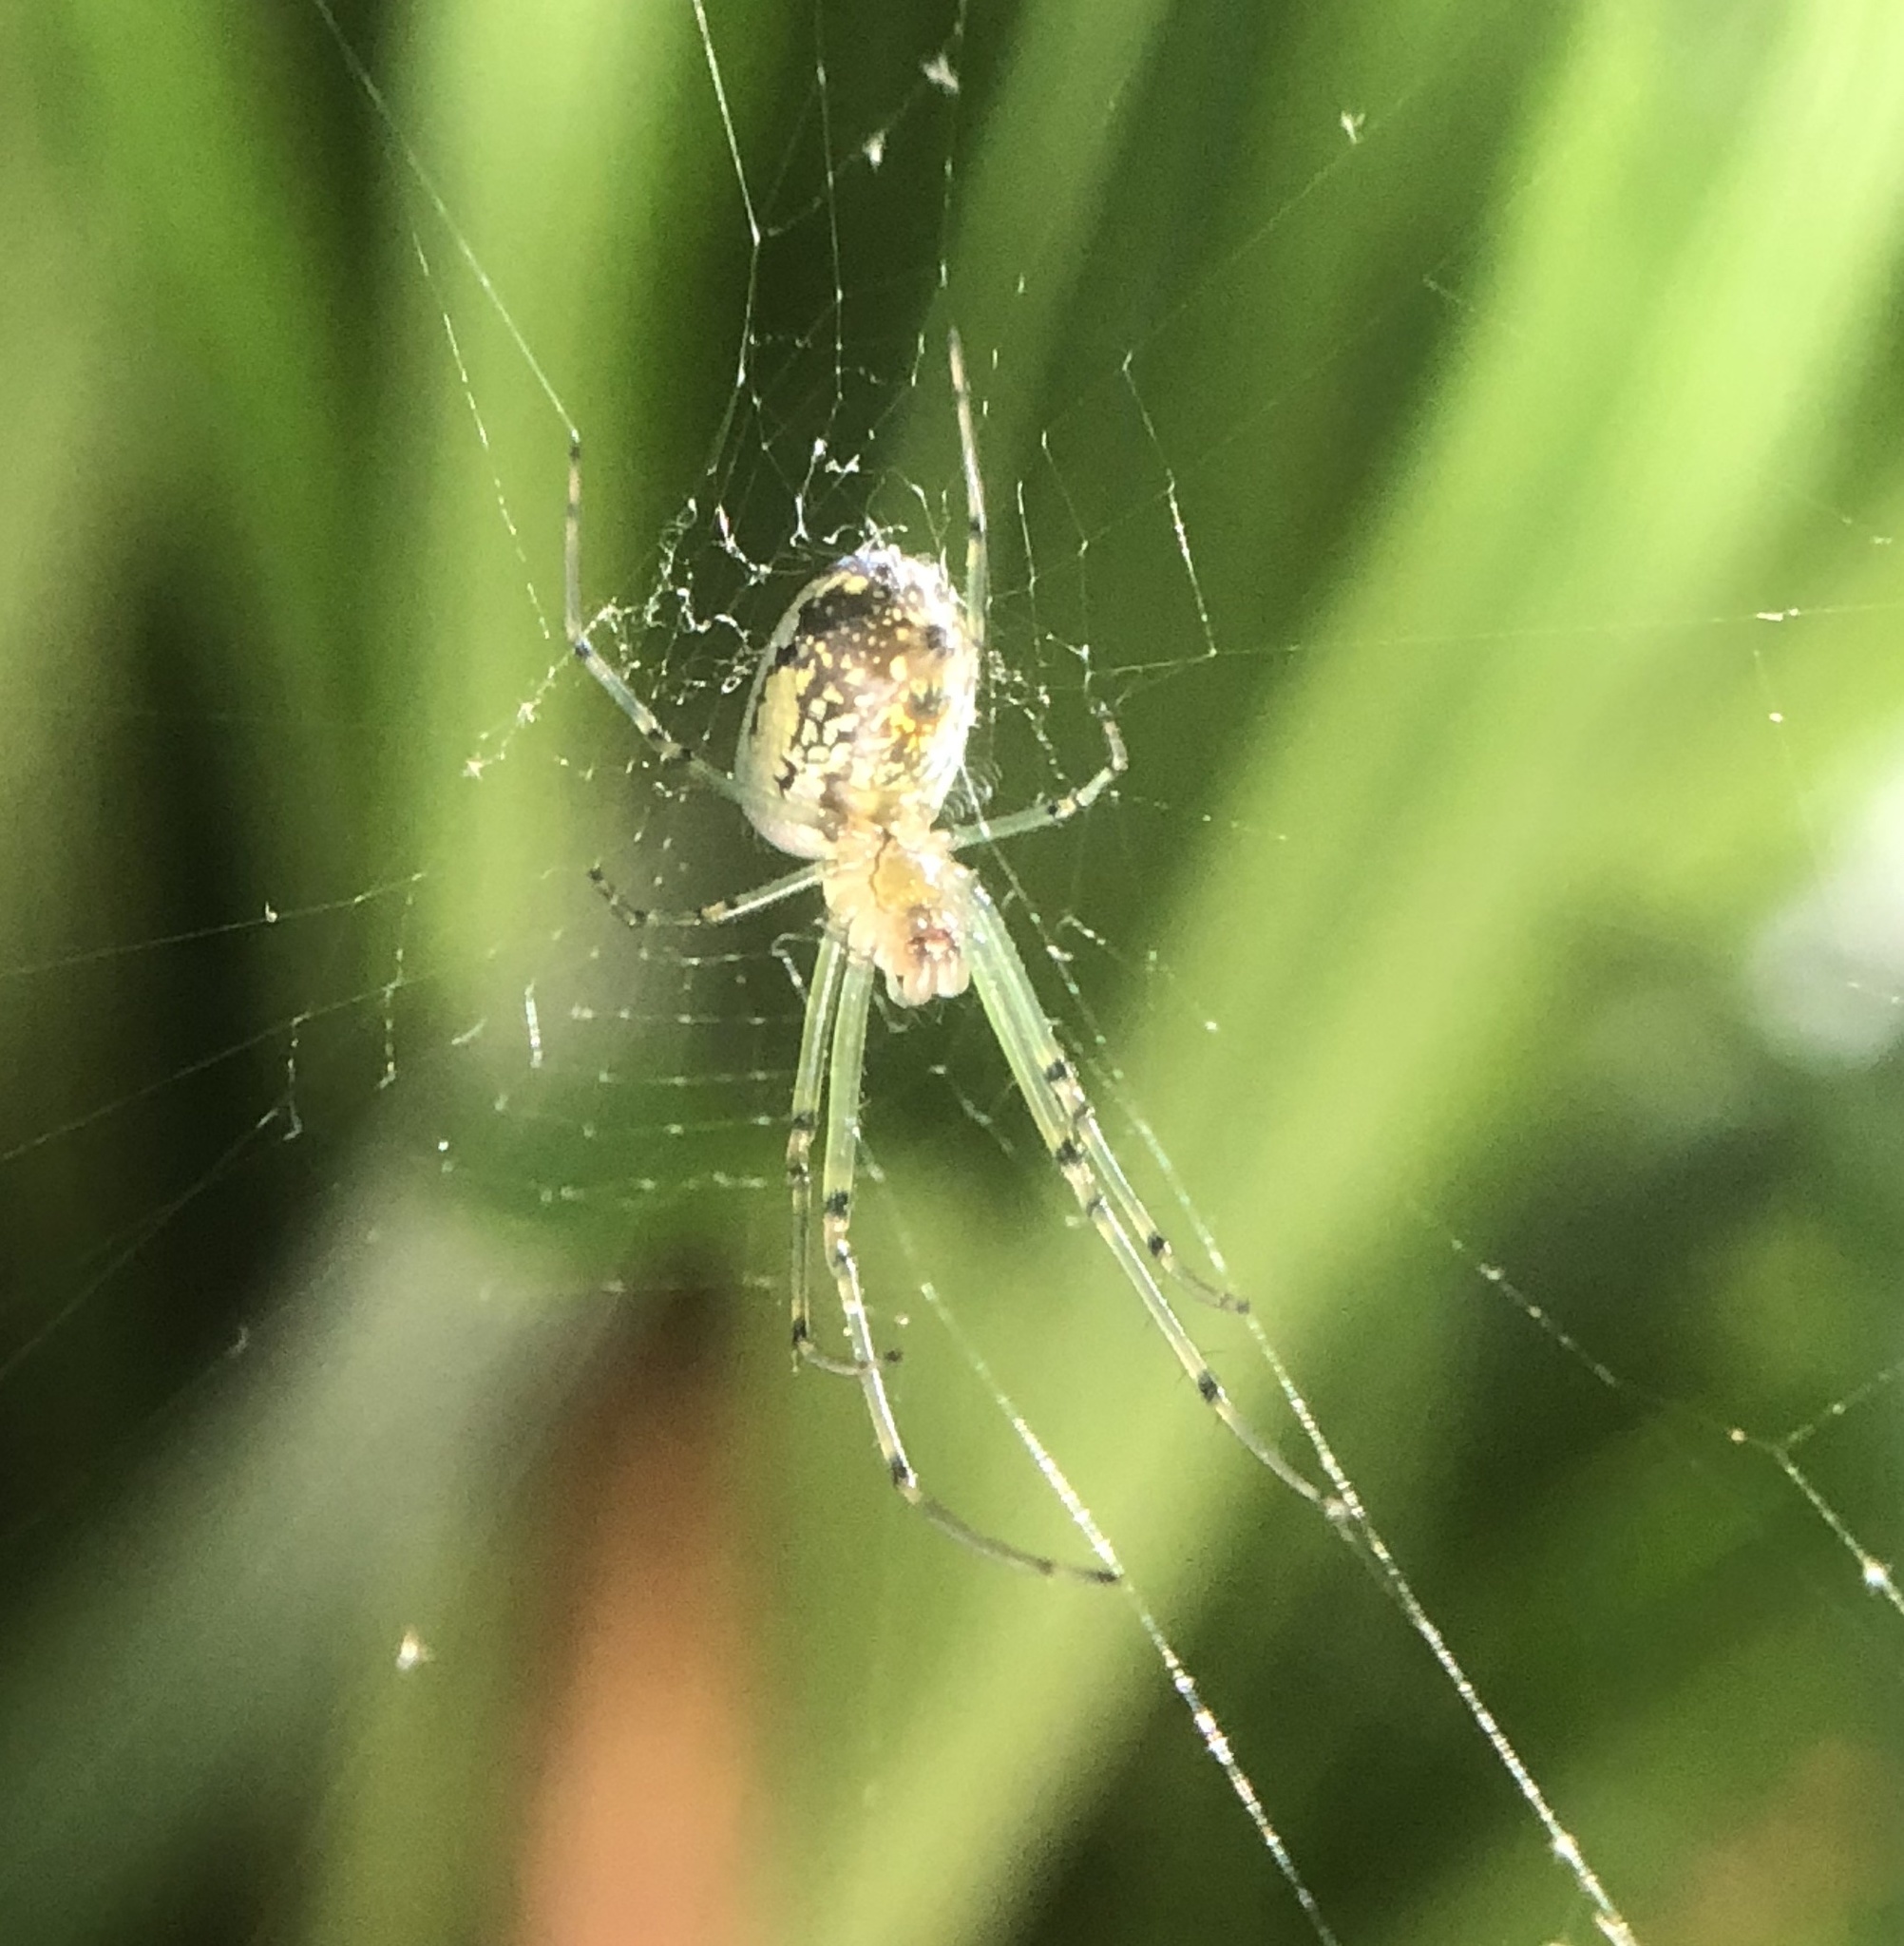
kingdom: Animalia
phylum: Arthropoda
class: Arachnida
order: Araneae
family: Tetragnathidae
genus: Leucauge
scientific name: Leucauge venusta
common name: Longjawed orb weavers
